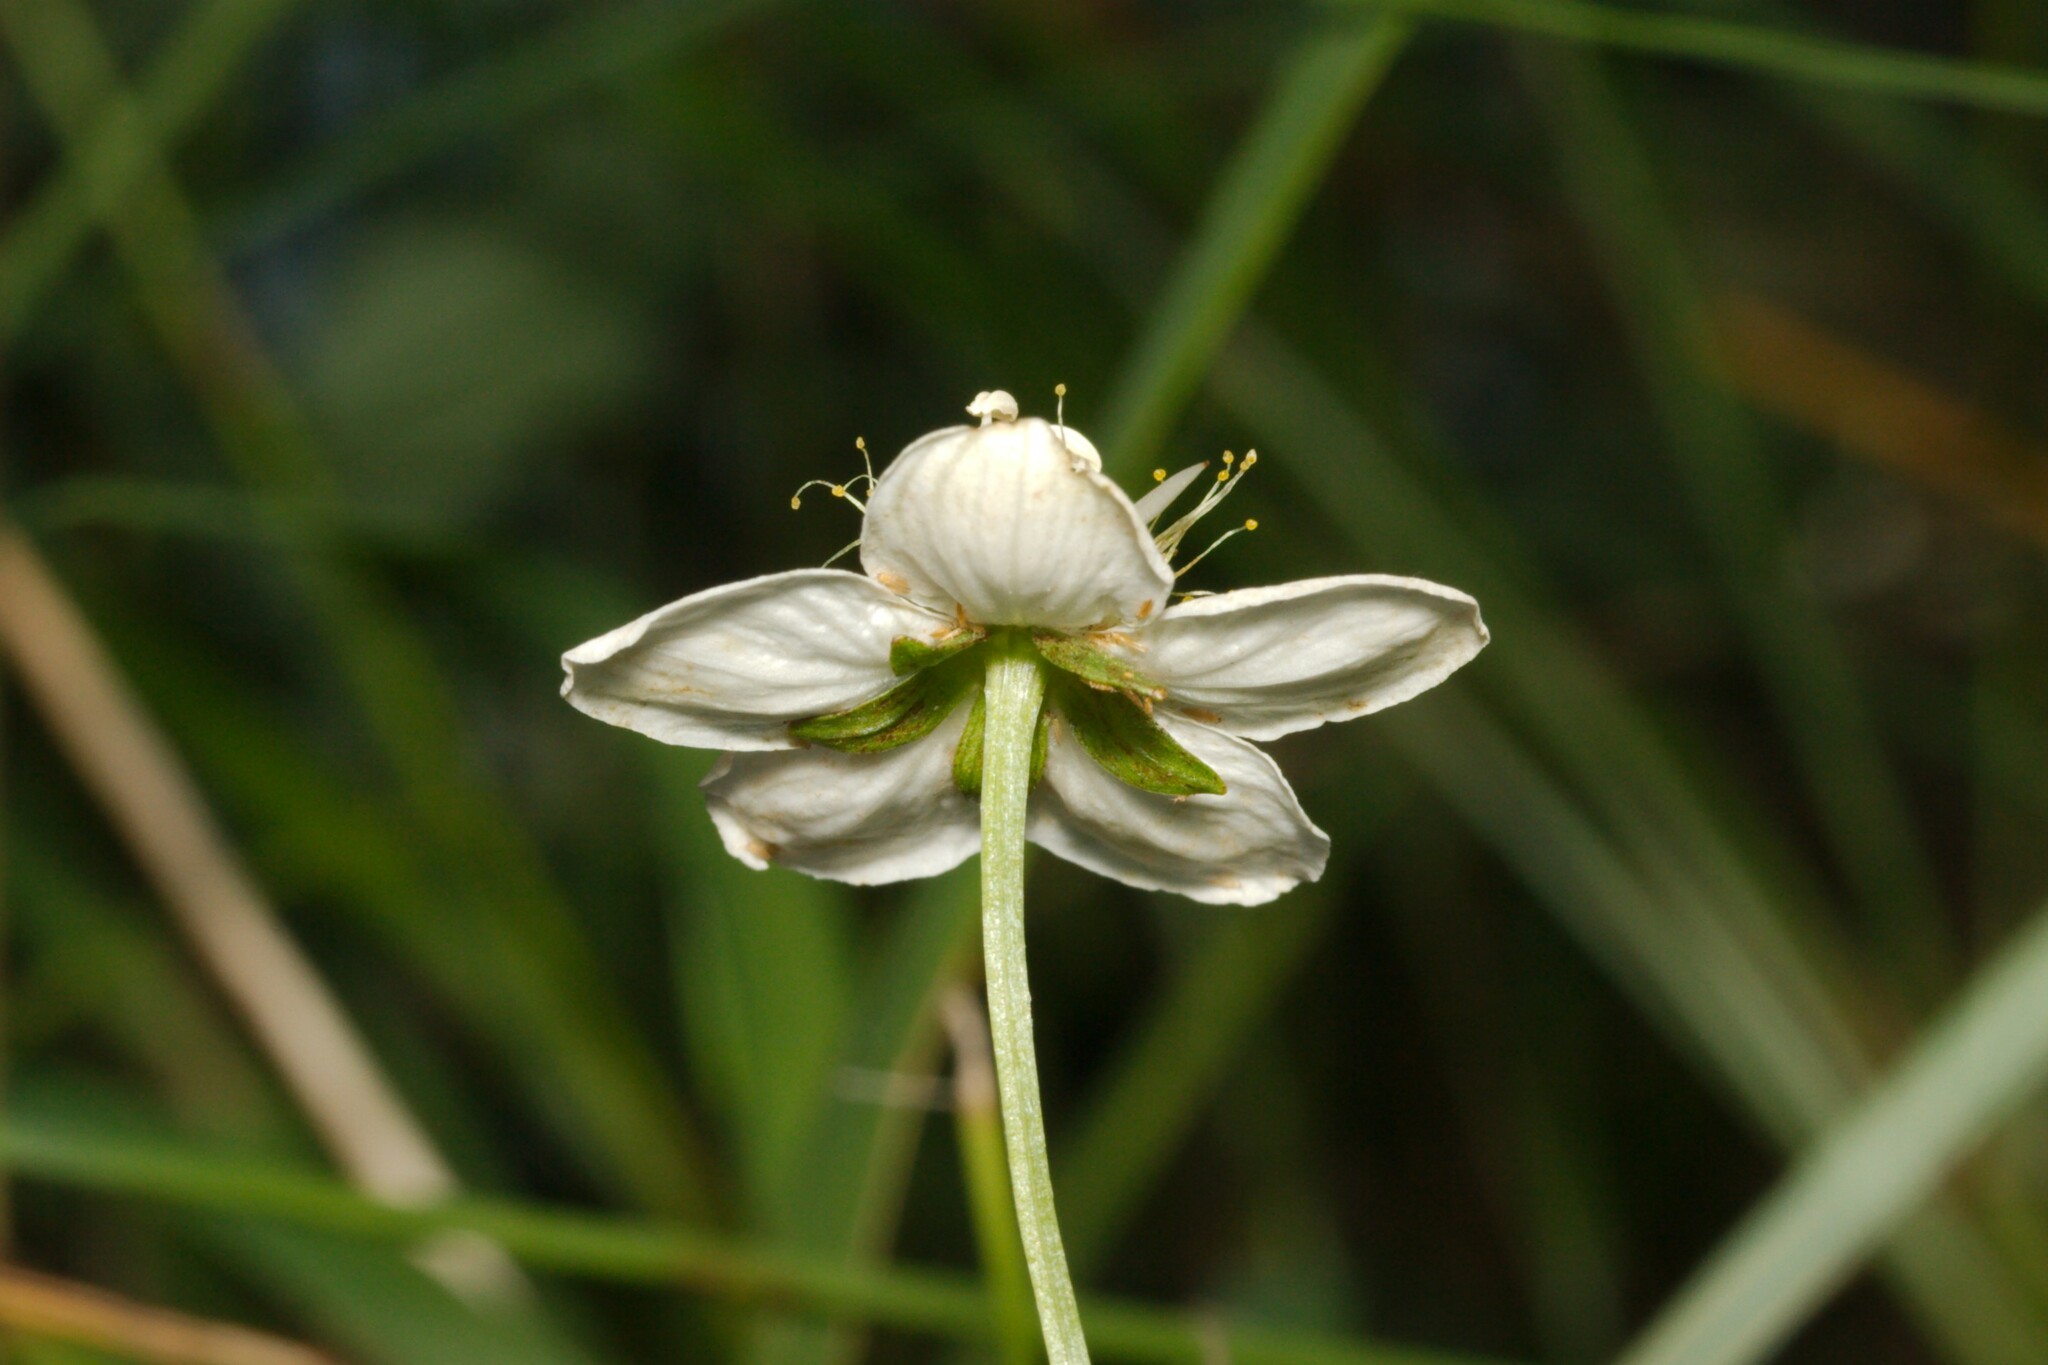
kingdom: Plantae
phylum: Tracheophyta
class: Magnoliopsida
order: Celastrales
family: Parnassiaceae
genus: Parnassia
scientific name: Parnassia palustris
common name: Grass-of-parnassus
